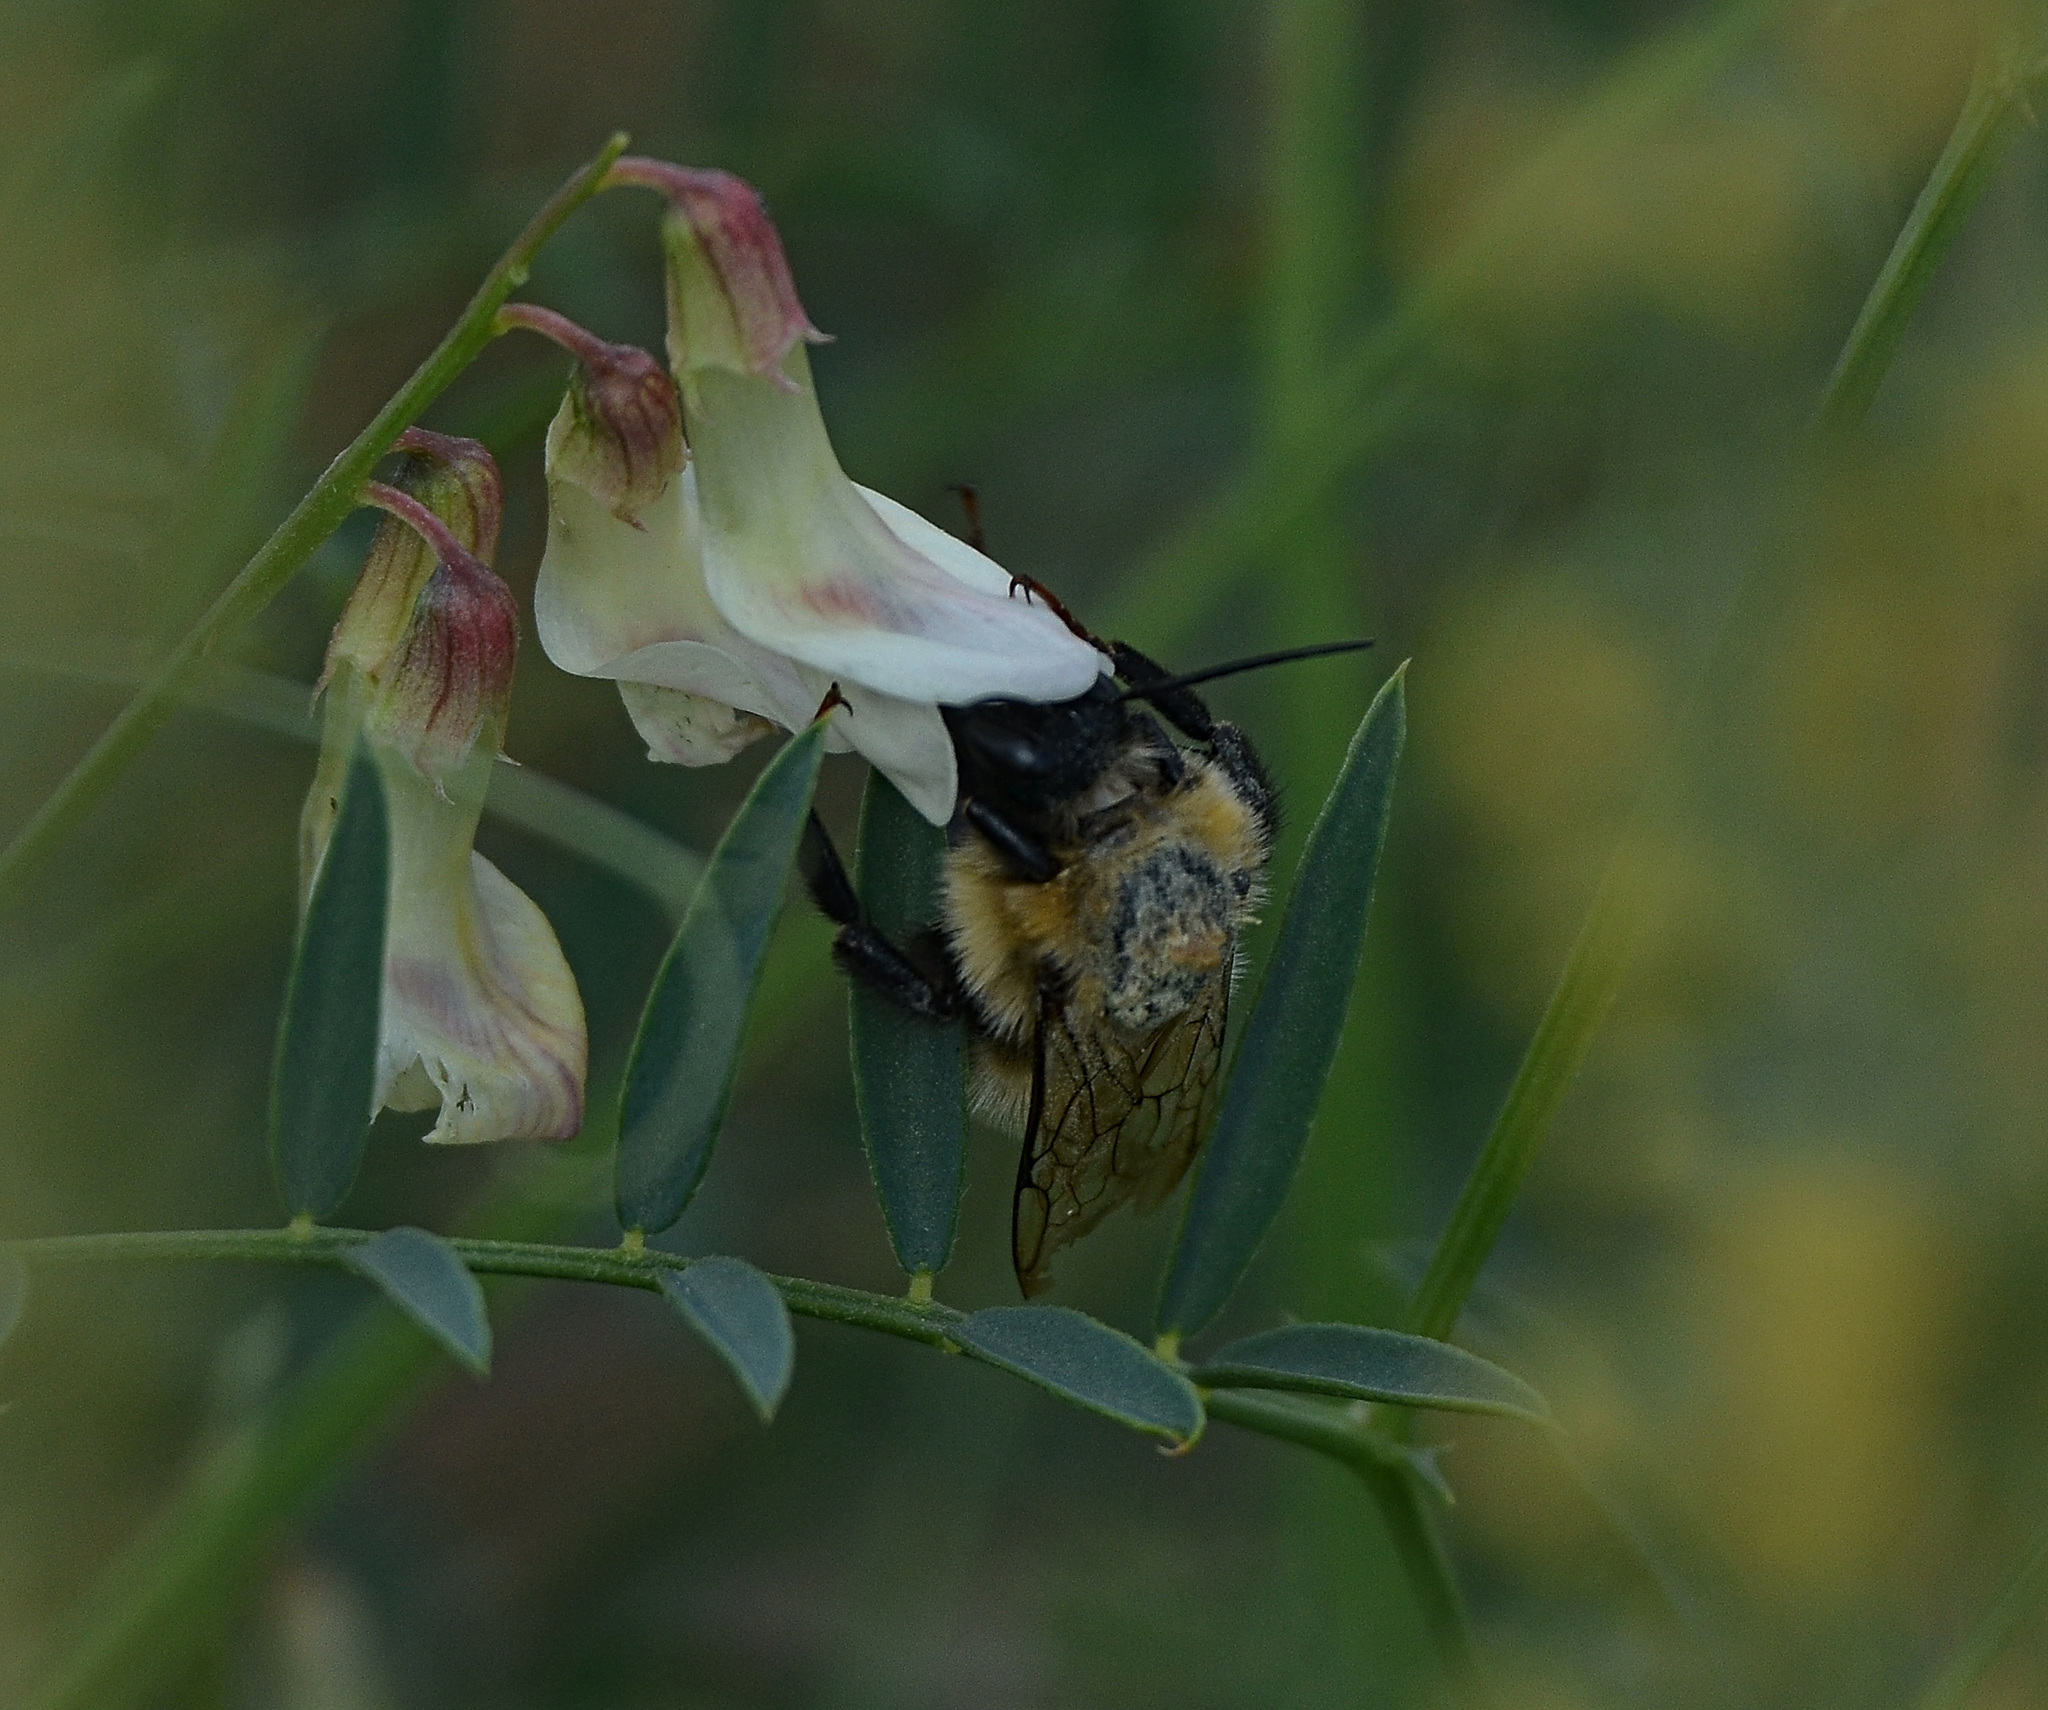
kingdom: Animalia
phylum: Arthropoda
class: Insecta
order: Hymenoptera
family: Apidae
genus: Bombus
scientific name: Bombus
